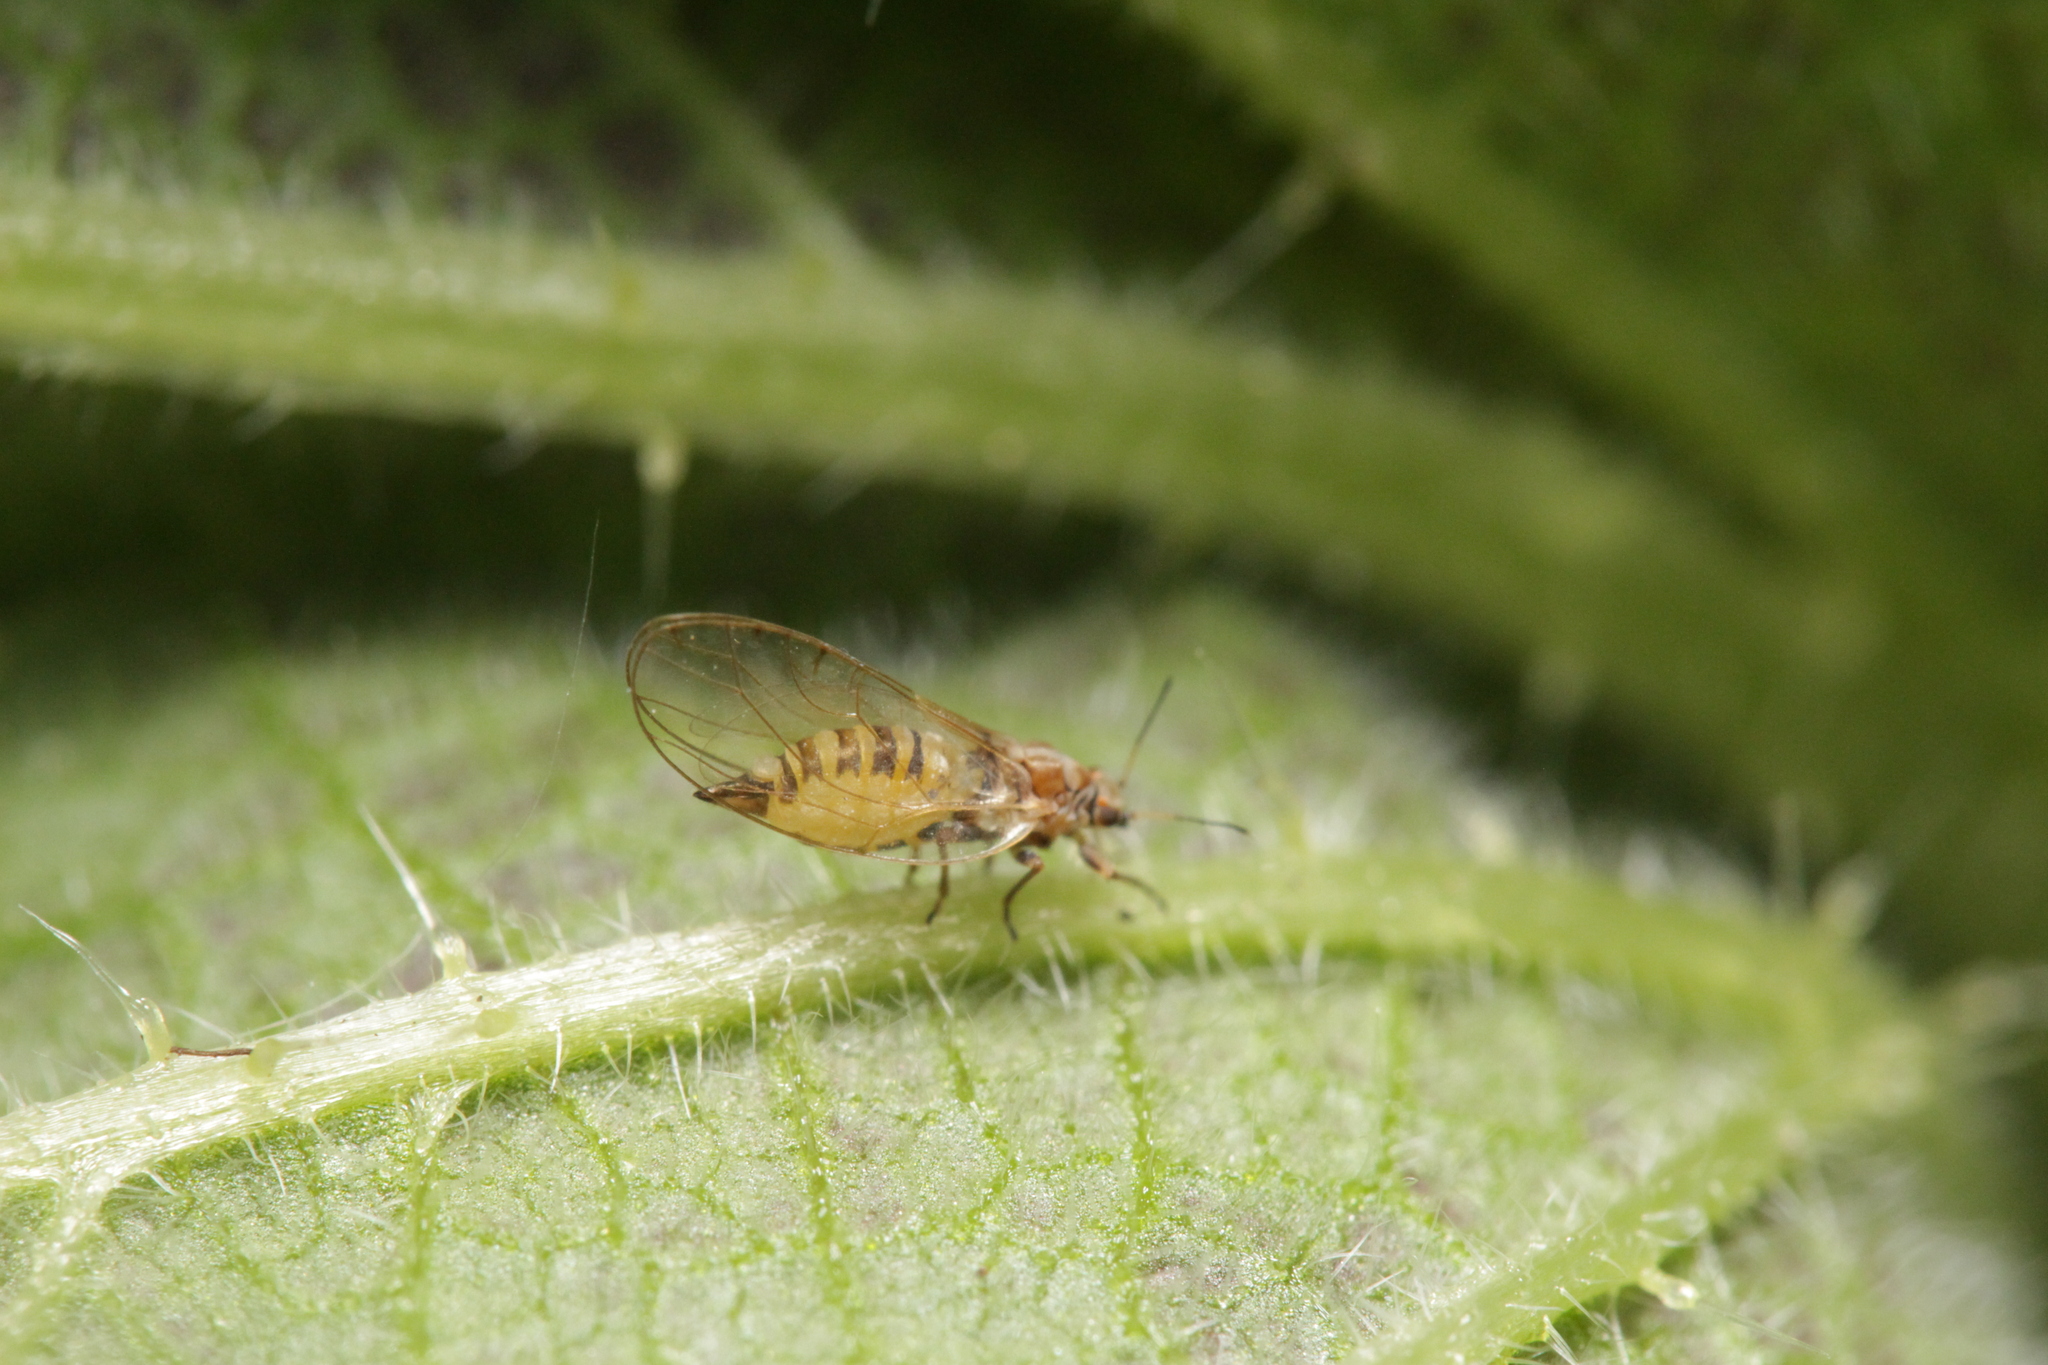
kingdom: Animalia
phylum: Arthropoda
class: Insecta
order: Hemiptera
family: Triozidae
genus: Trioza
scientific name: Trioza urticae
